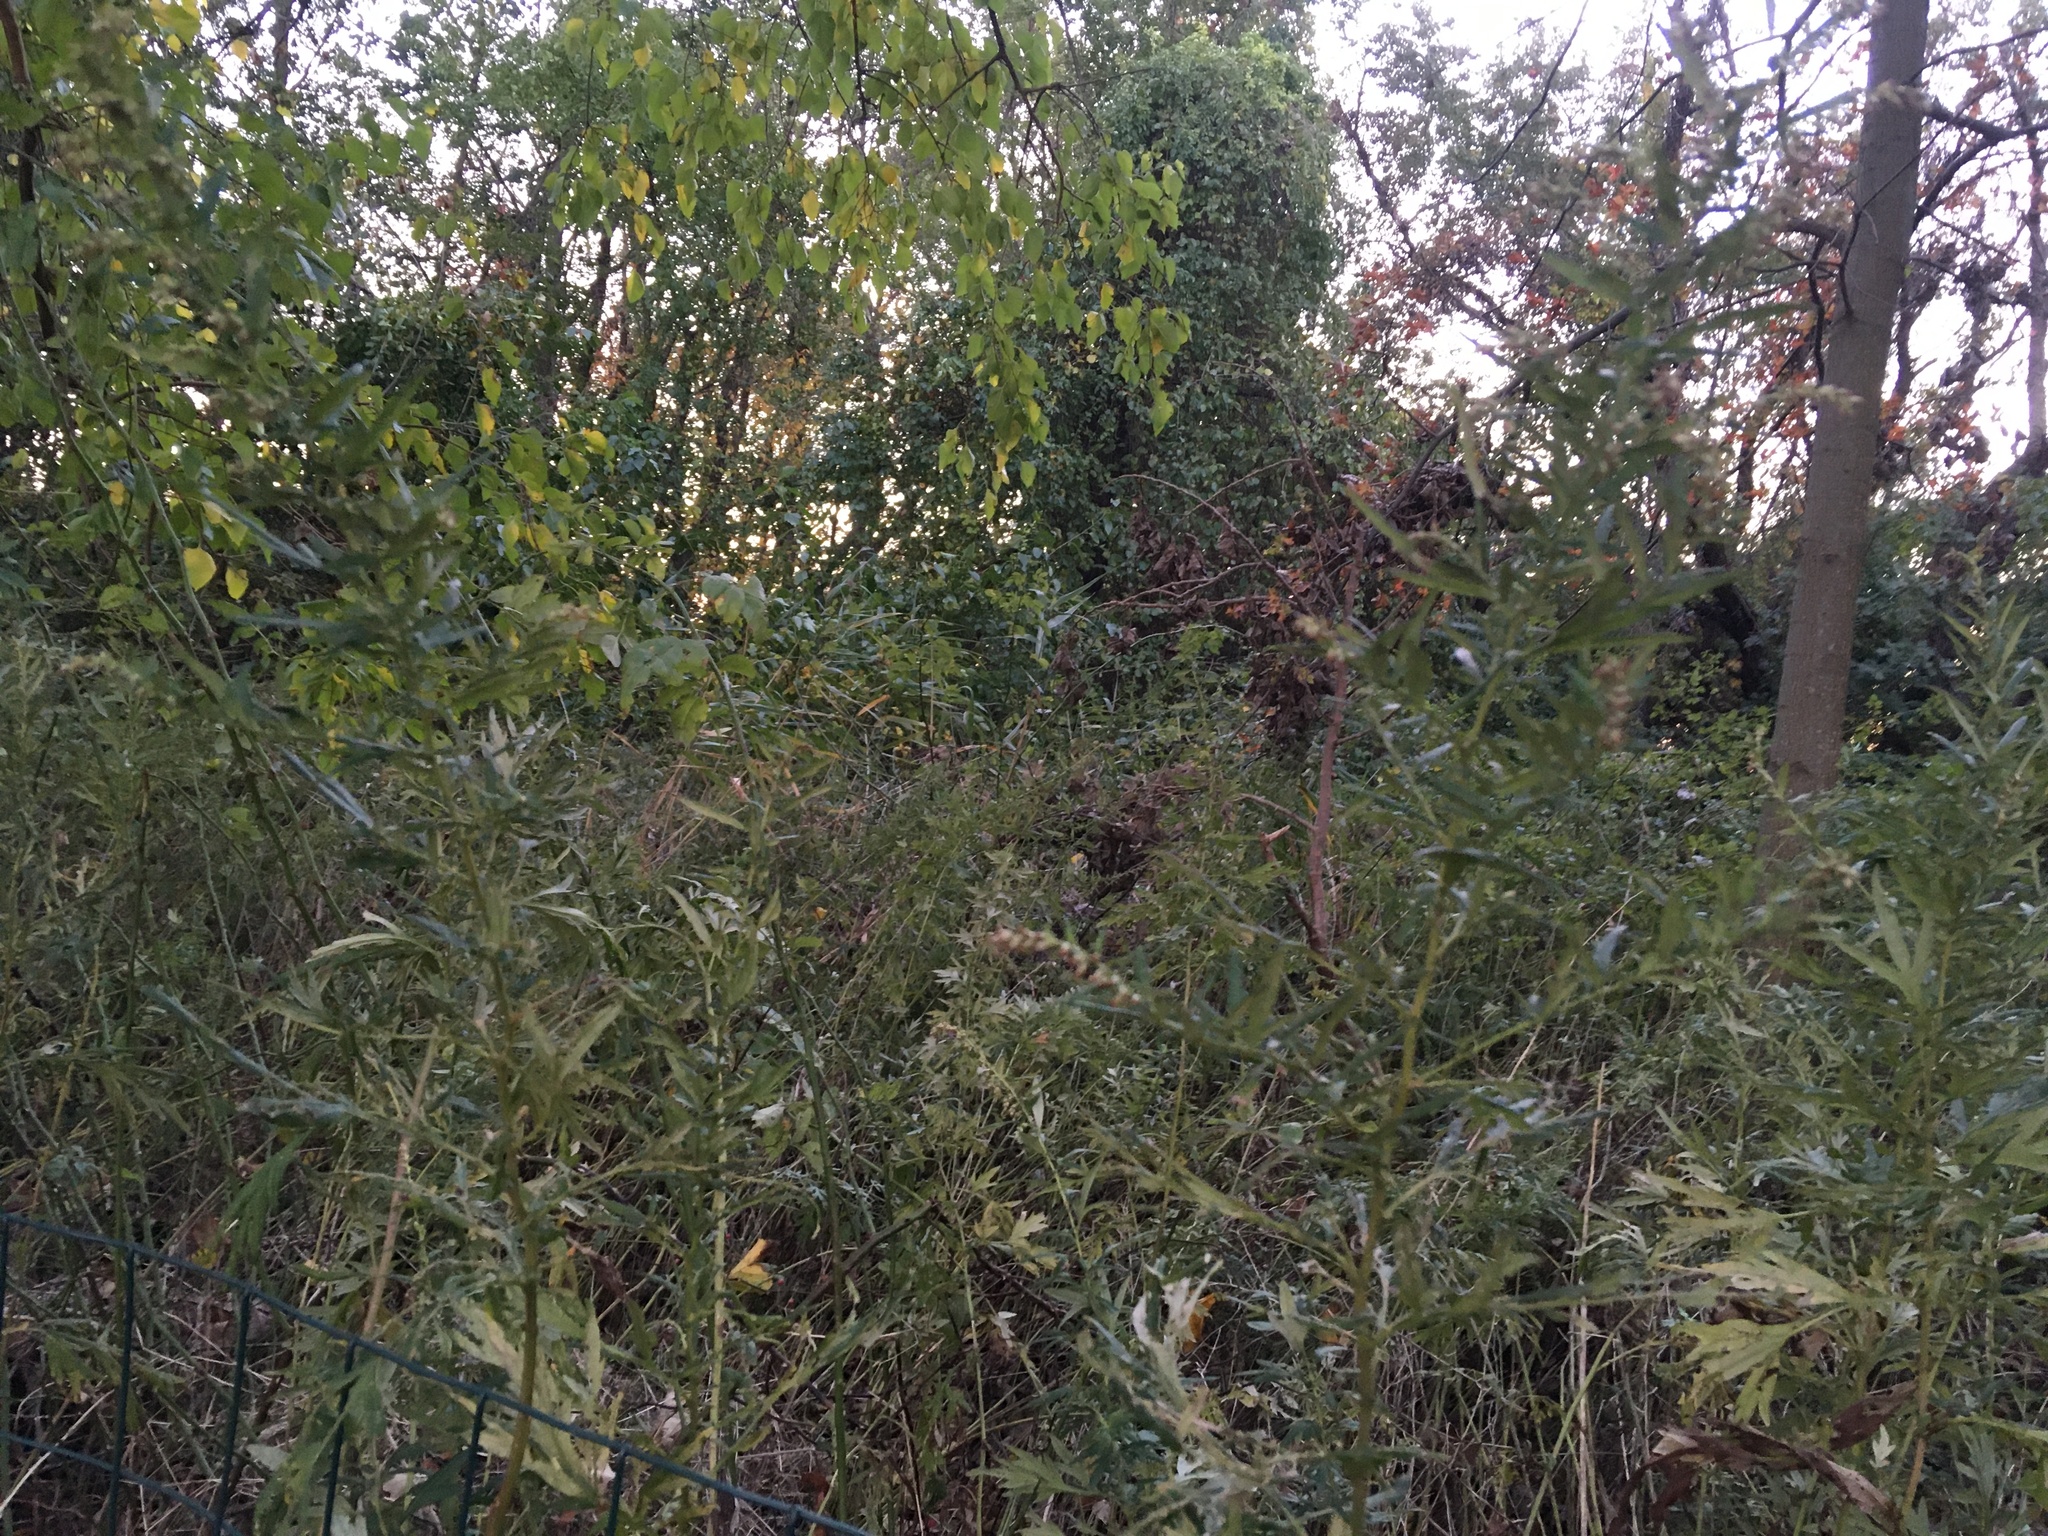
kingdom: Plantae
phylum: Tracheophyta
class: Magnoliopsida
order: Asterales
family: Asteraceae
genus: Artemisia
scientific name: Artemisia vulgaris
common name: Mugwort
